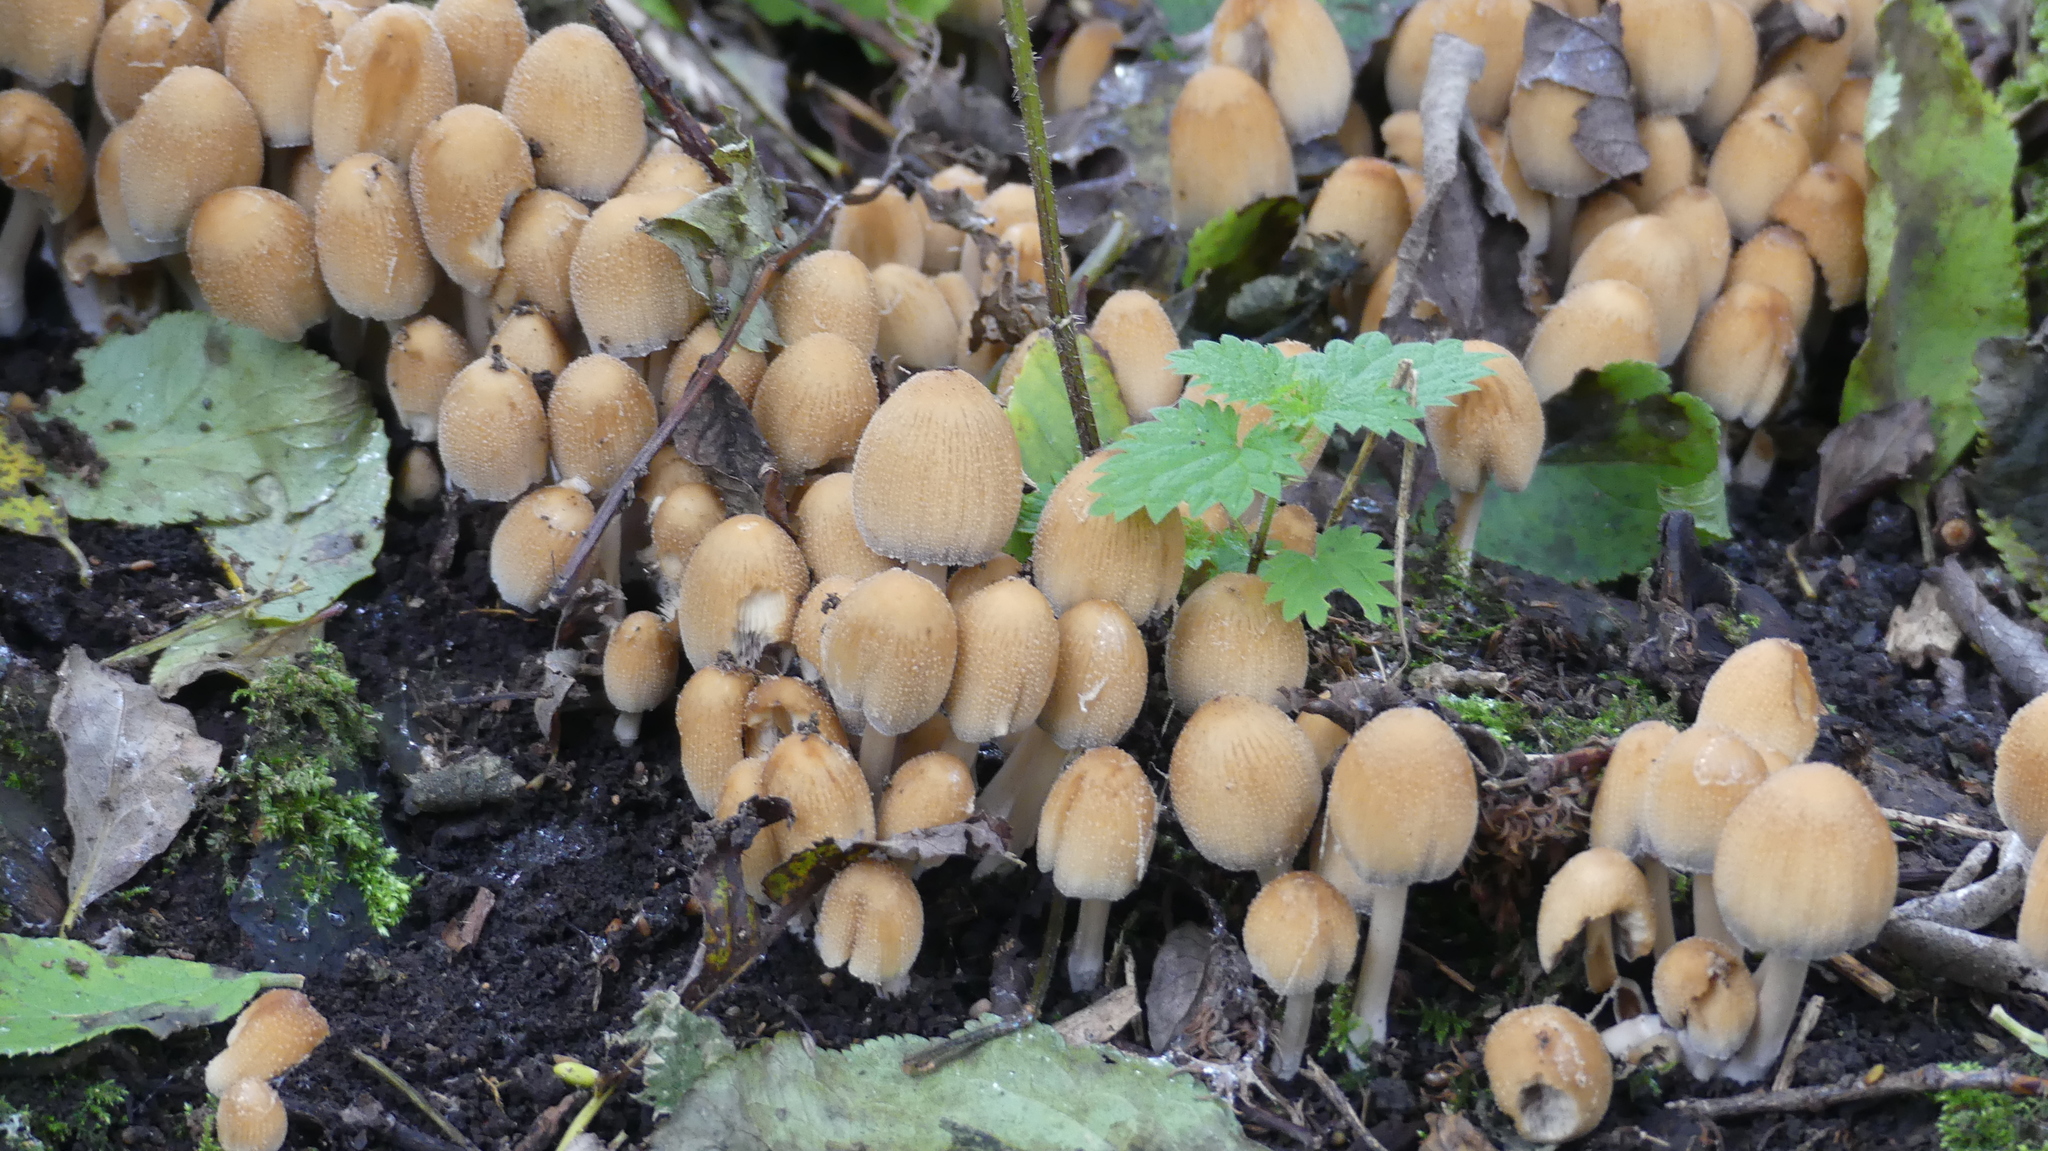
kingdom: Fungi
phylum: Basidiomycota
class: Agaricomycetes
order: Agaricales
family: Psathyrellaceae
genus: Coprinellus
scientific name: Coprinellus micaceus
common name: Glistening ink-cap
